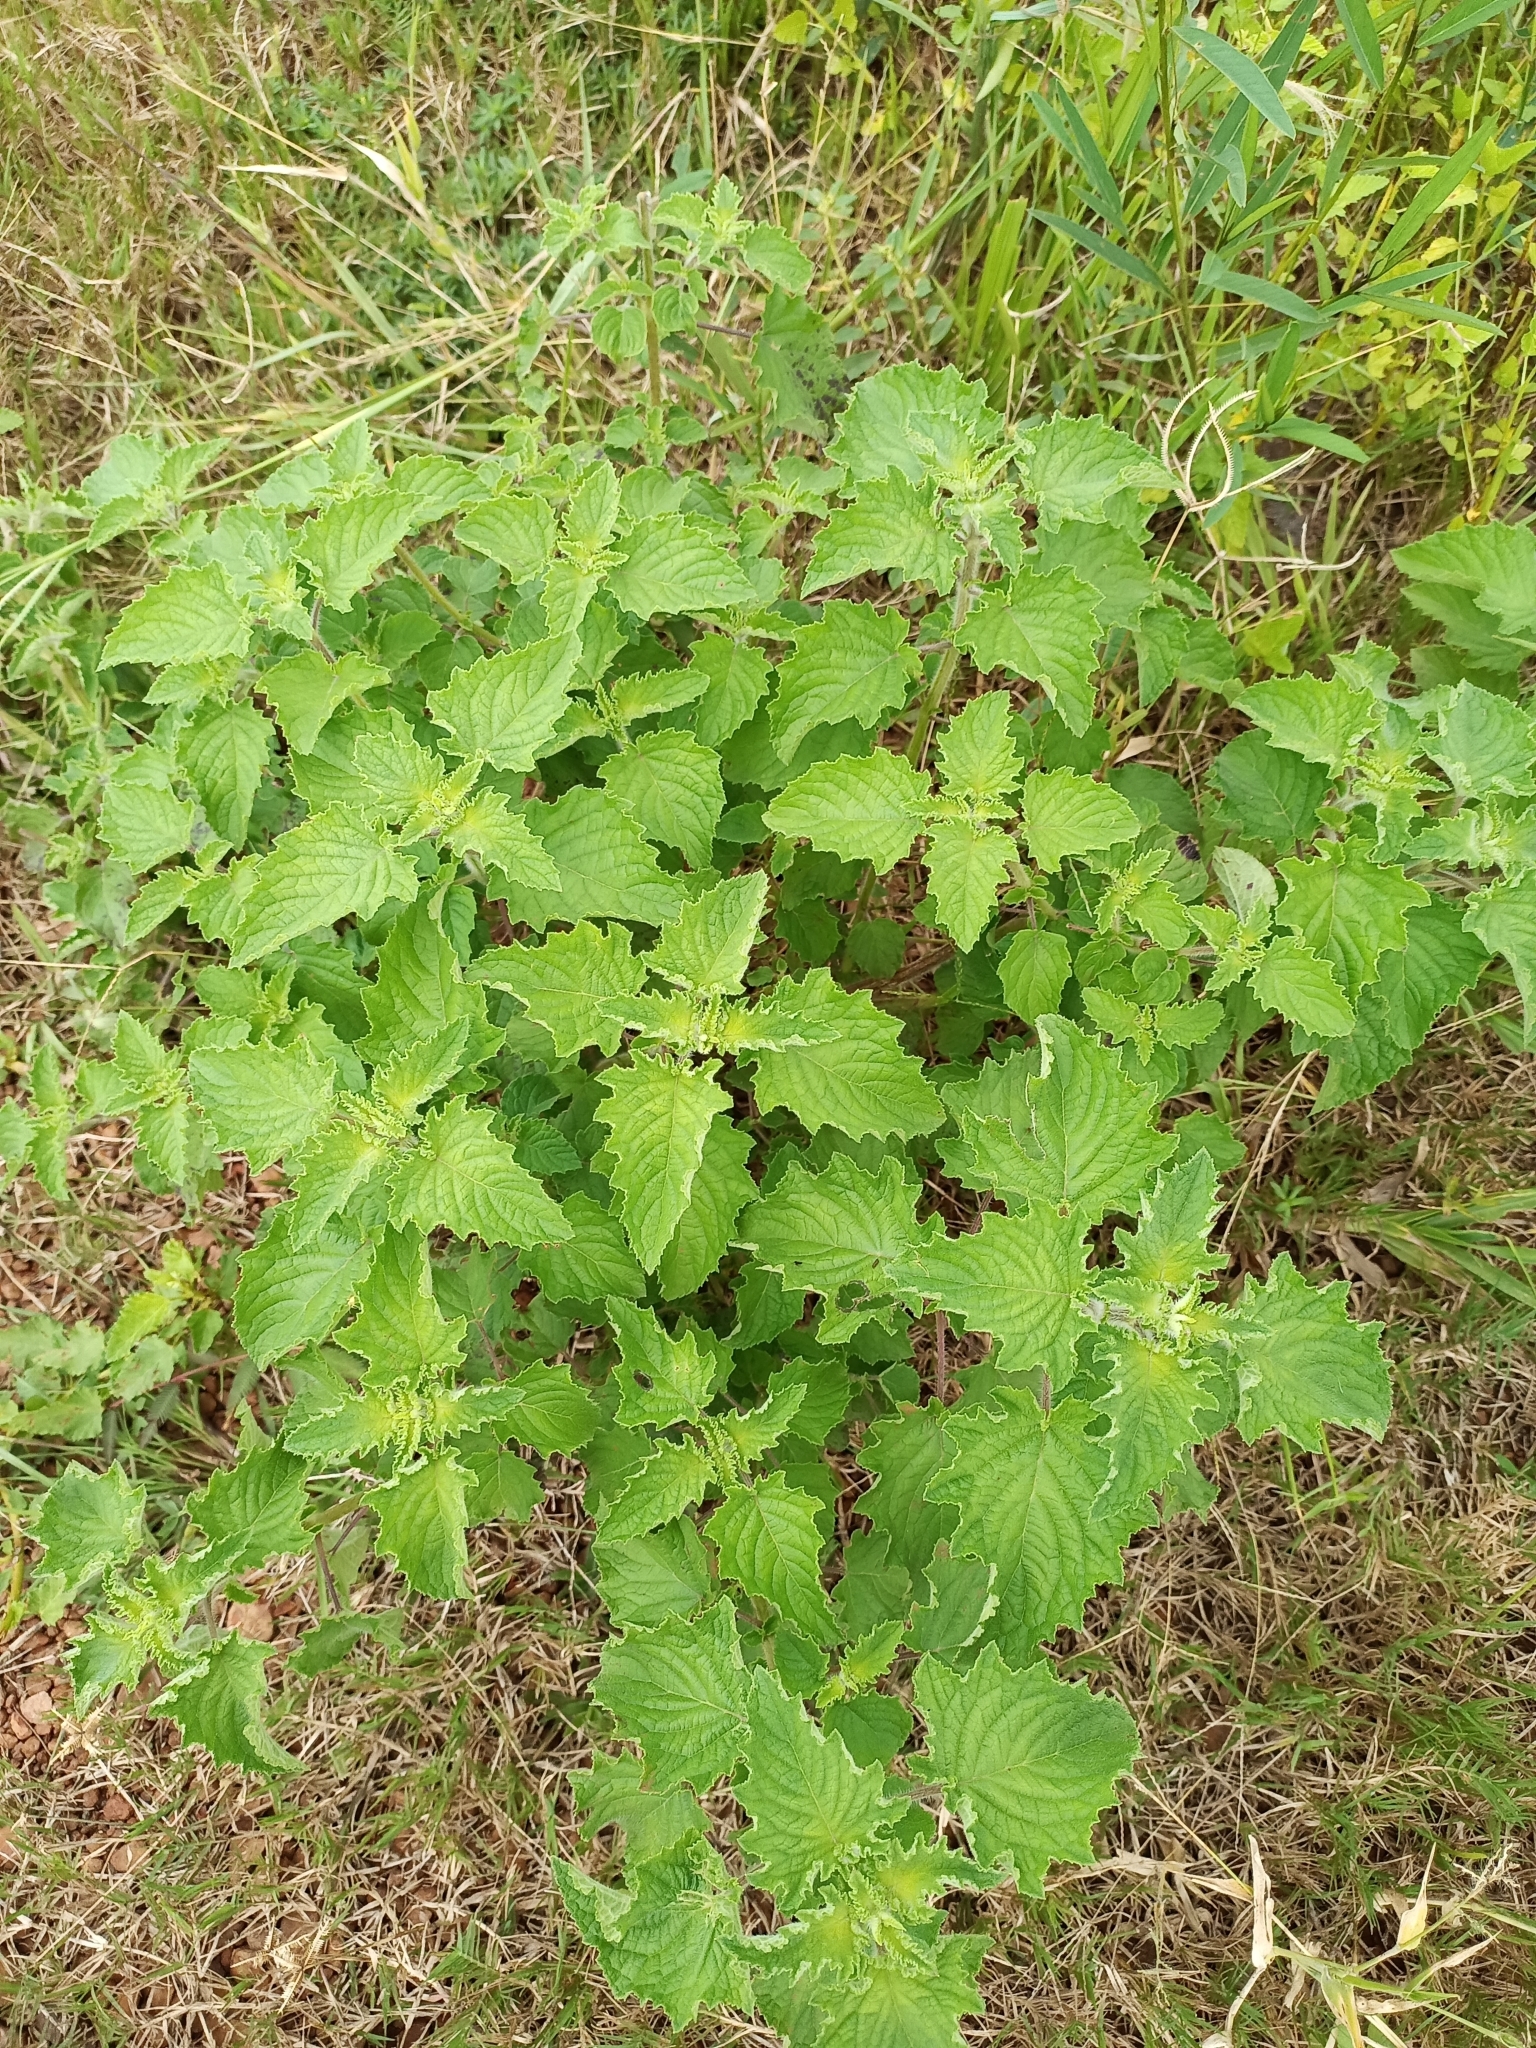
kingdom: Plantae
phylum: Tracheophyta
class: Magnoliopsida
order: Lamiales
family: Lamiaceae
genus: Mesosphaerum
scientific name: Mesosphaerum suaveolens
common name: Pignut
